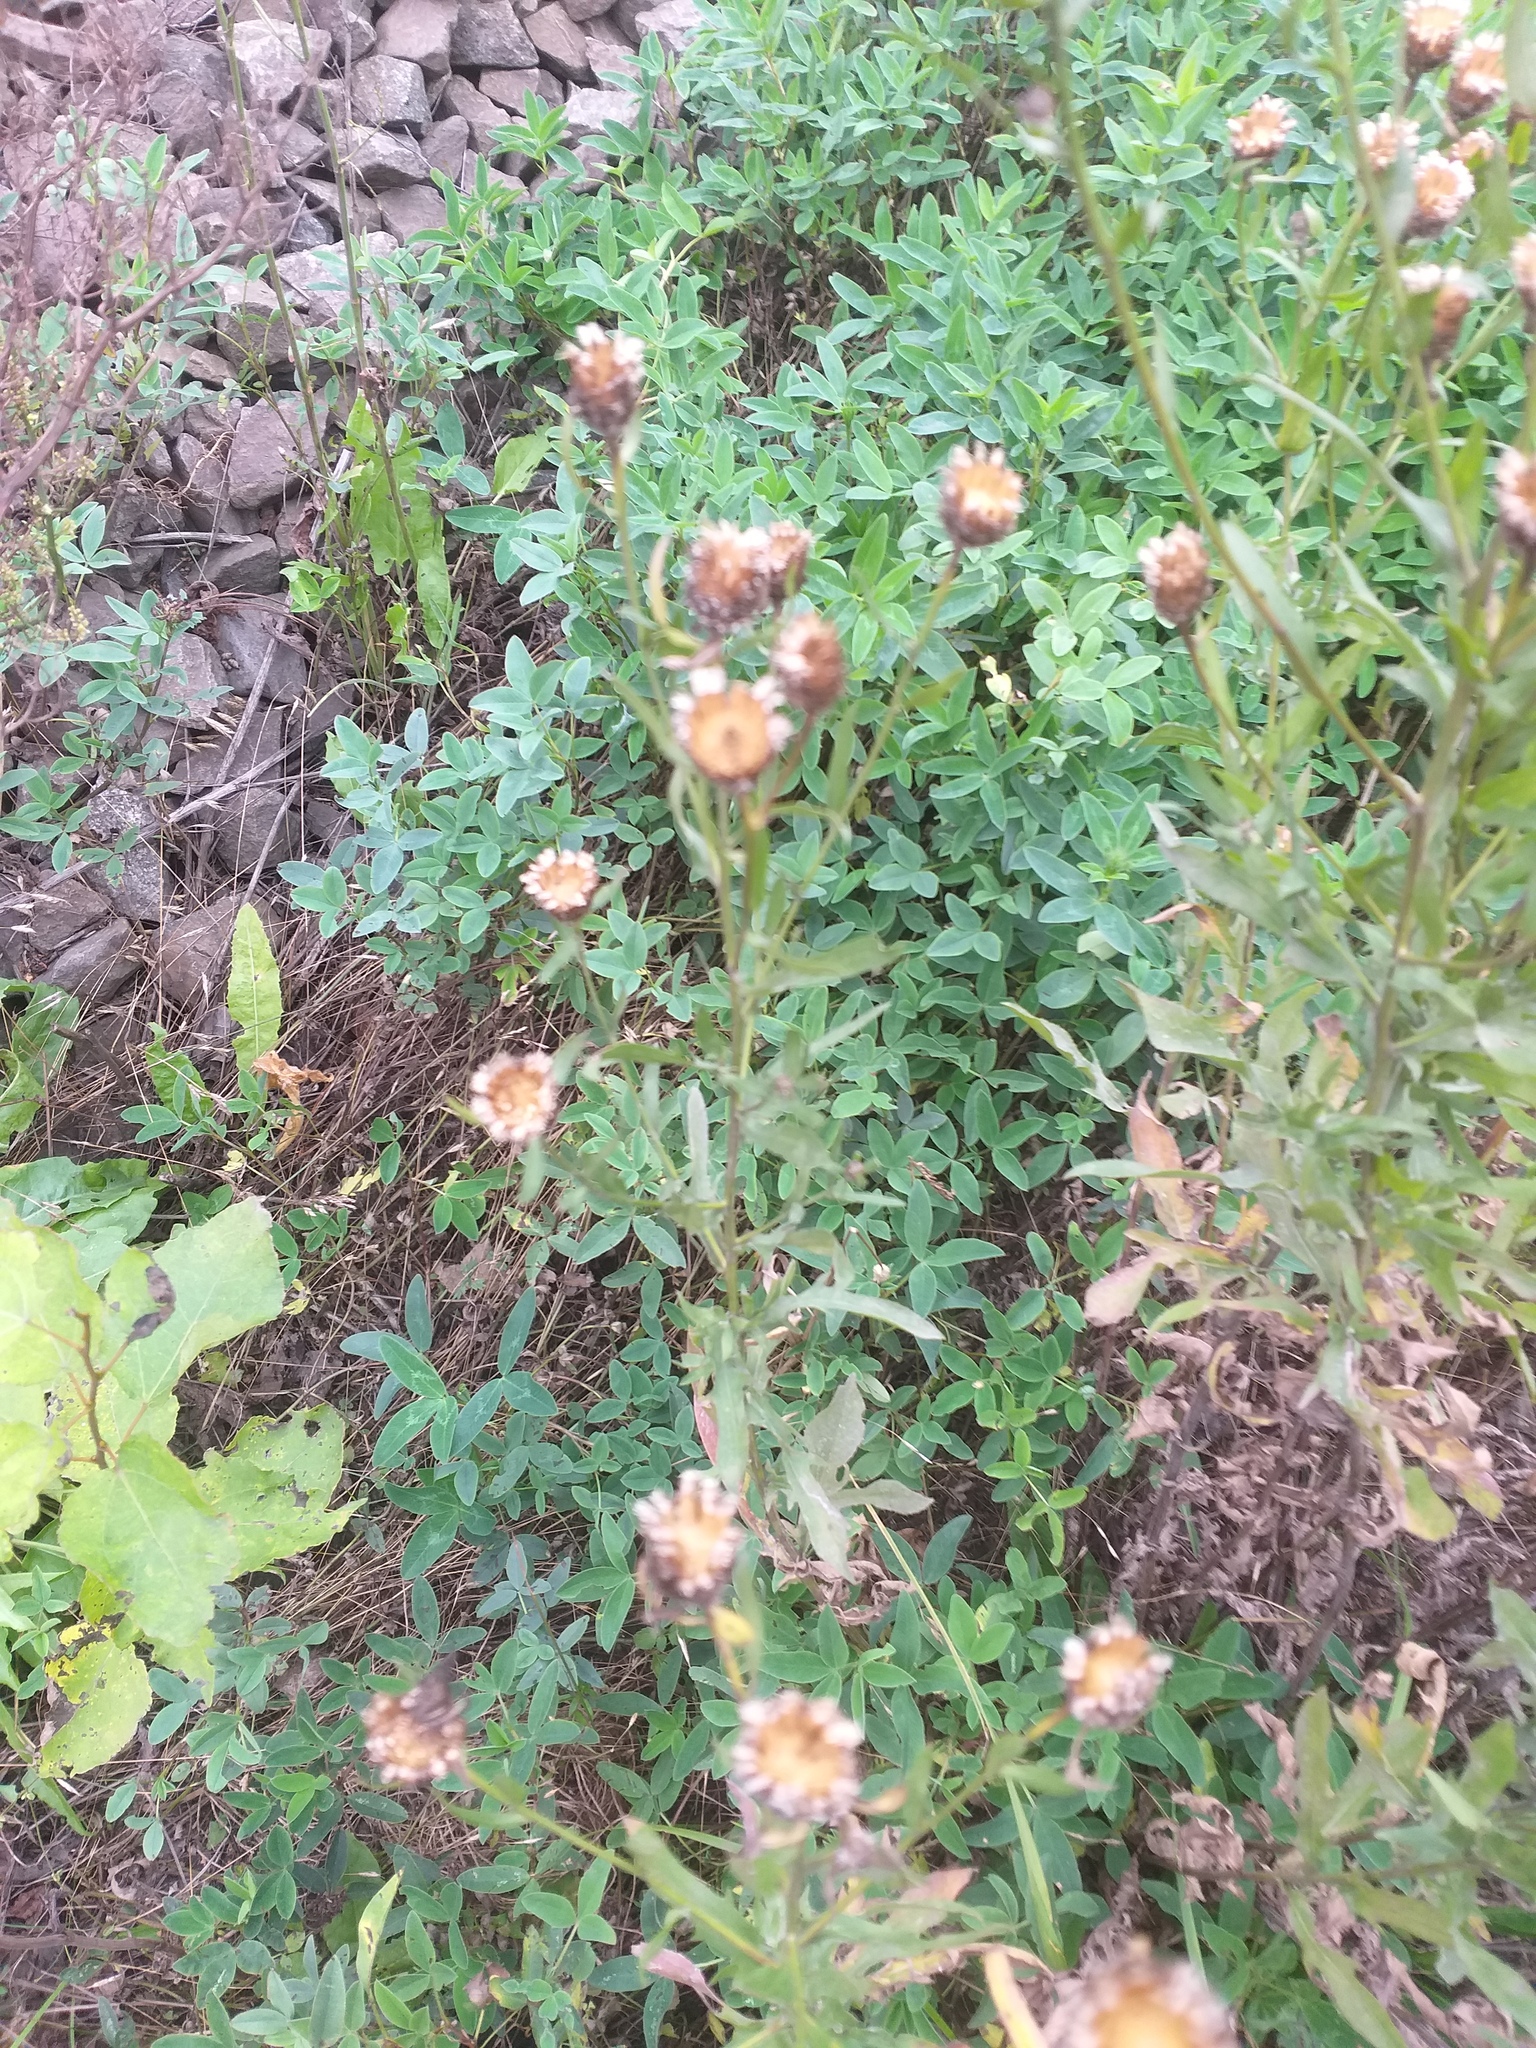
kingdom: Plantae
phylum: Tracheophyta
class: Magnoliopsida
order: Asterales
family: Asteraceae
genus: Centaurea
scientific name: Centaurea jacea
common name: Brown knapweed
